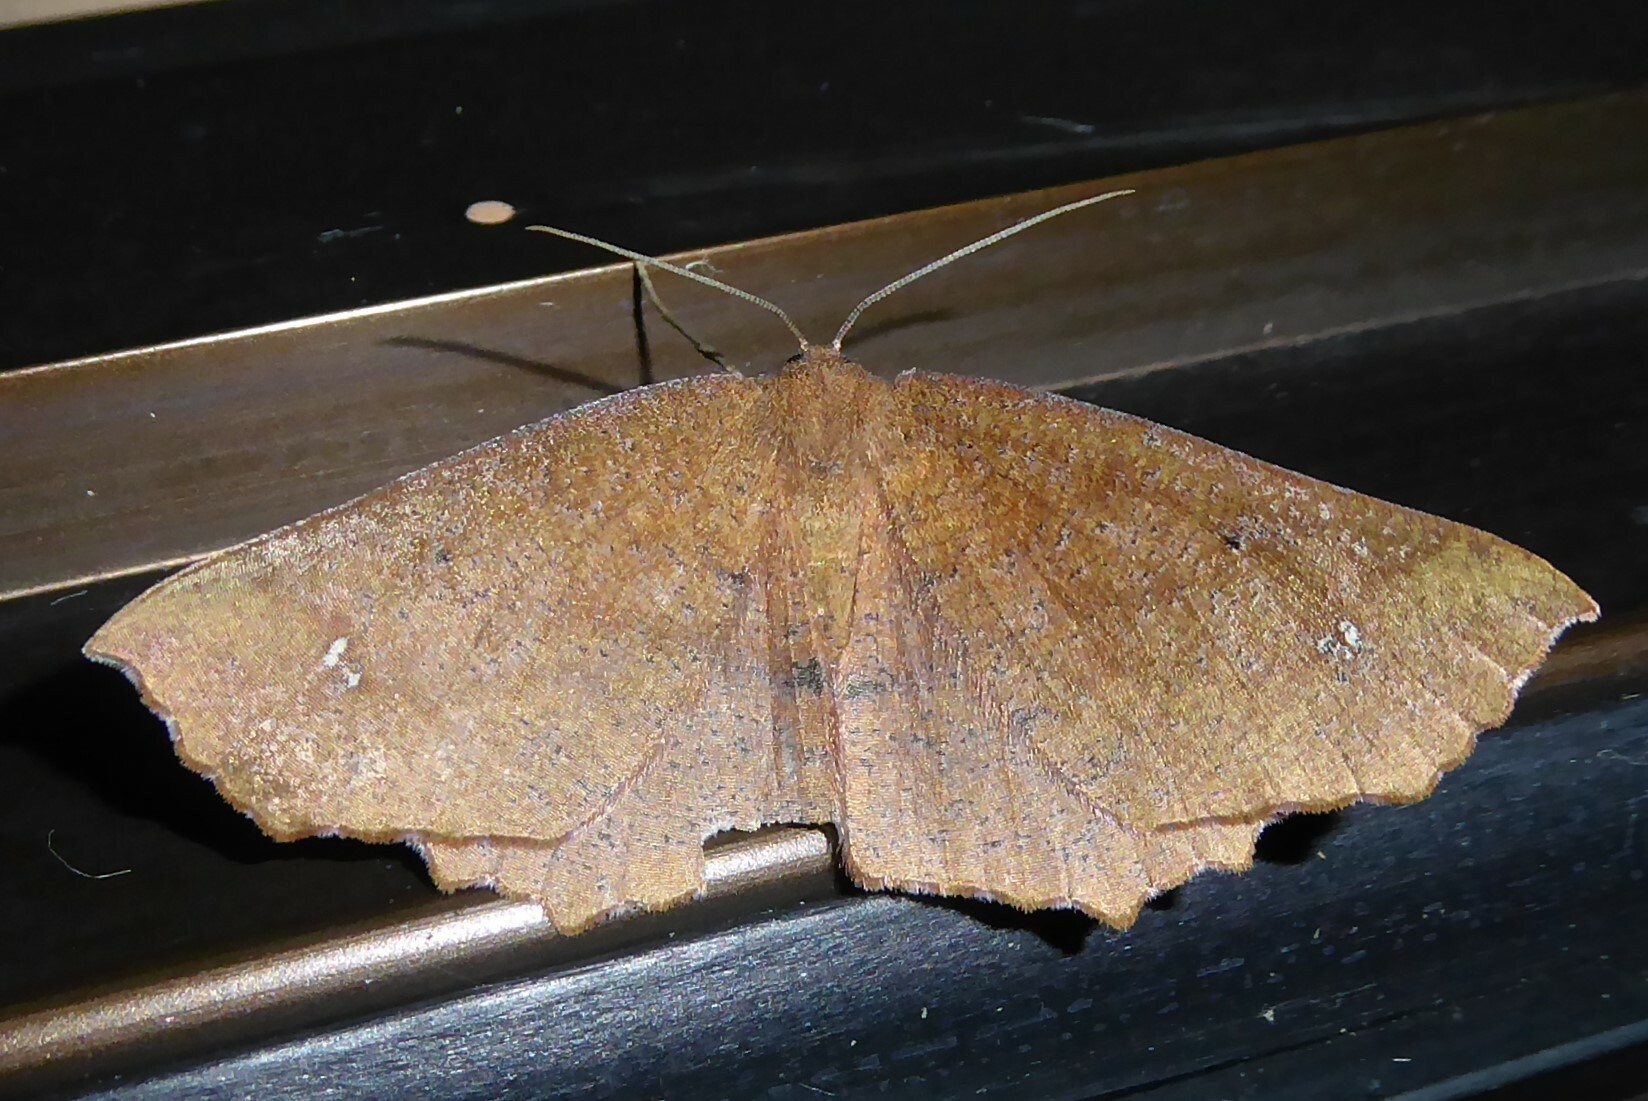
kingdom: Animalia
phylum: Arthropoda
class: Insecta
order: Lepidoptera
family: Geometridae
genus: Xyridacma
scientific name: Xyridacma ustaria
